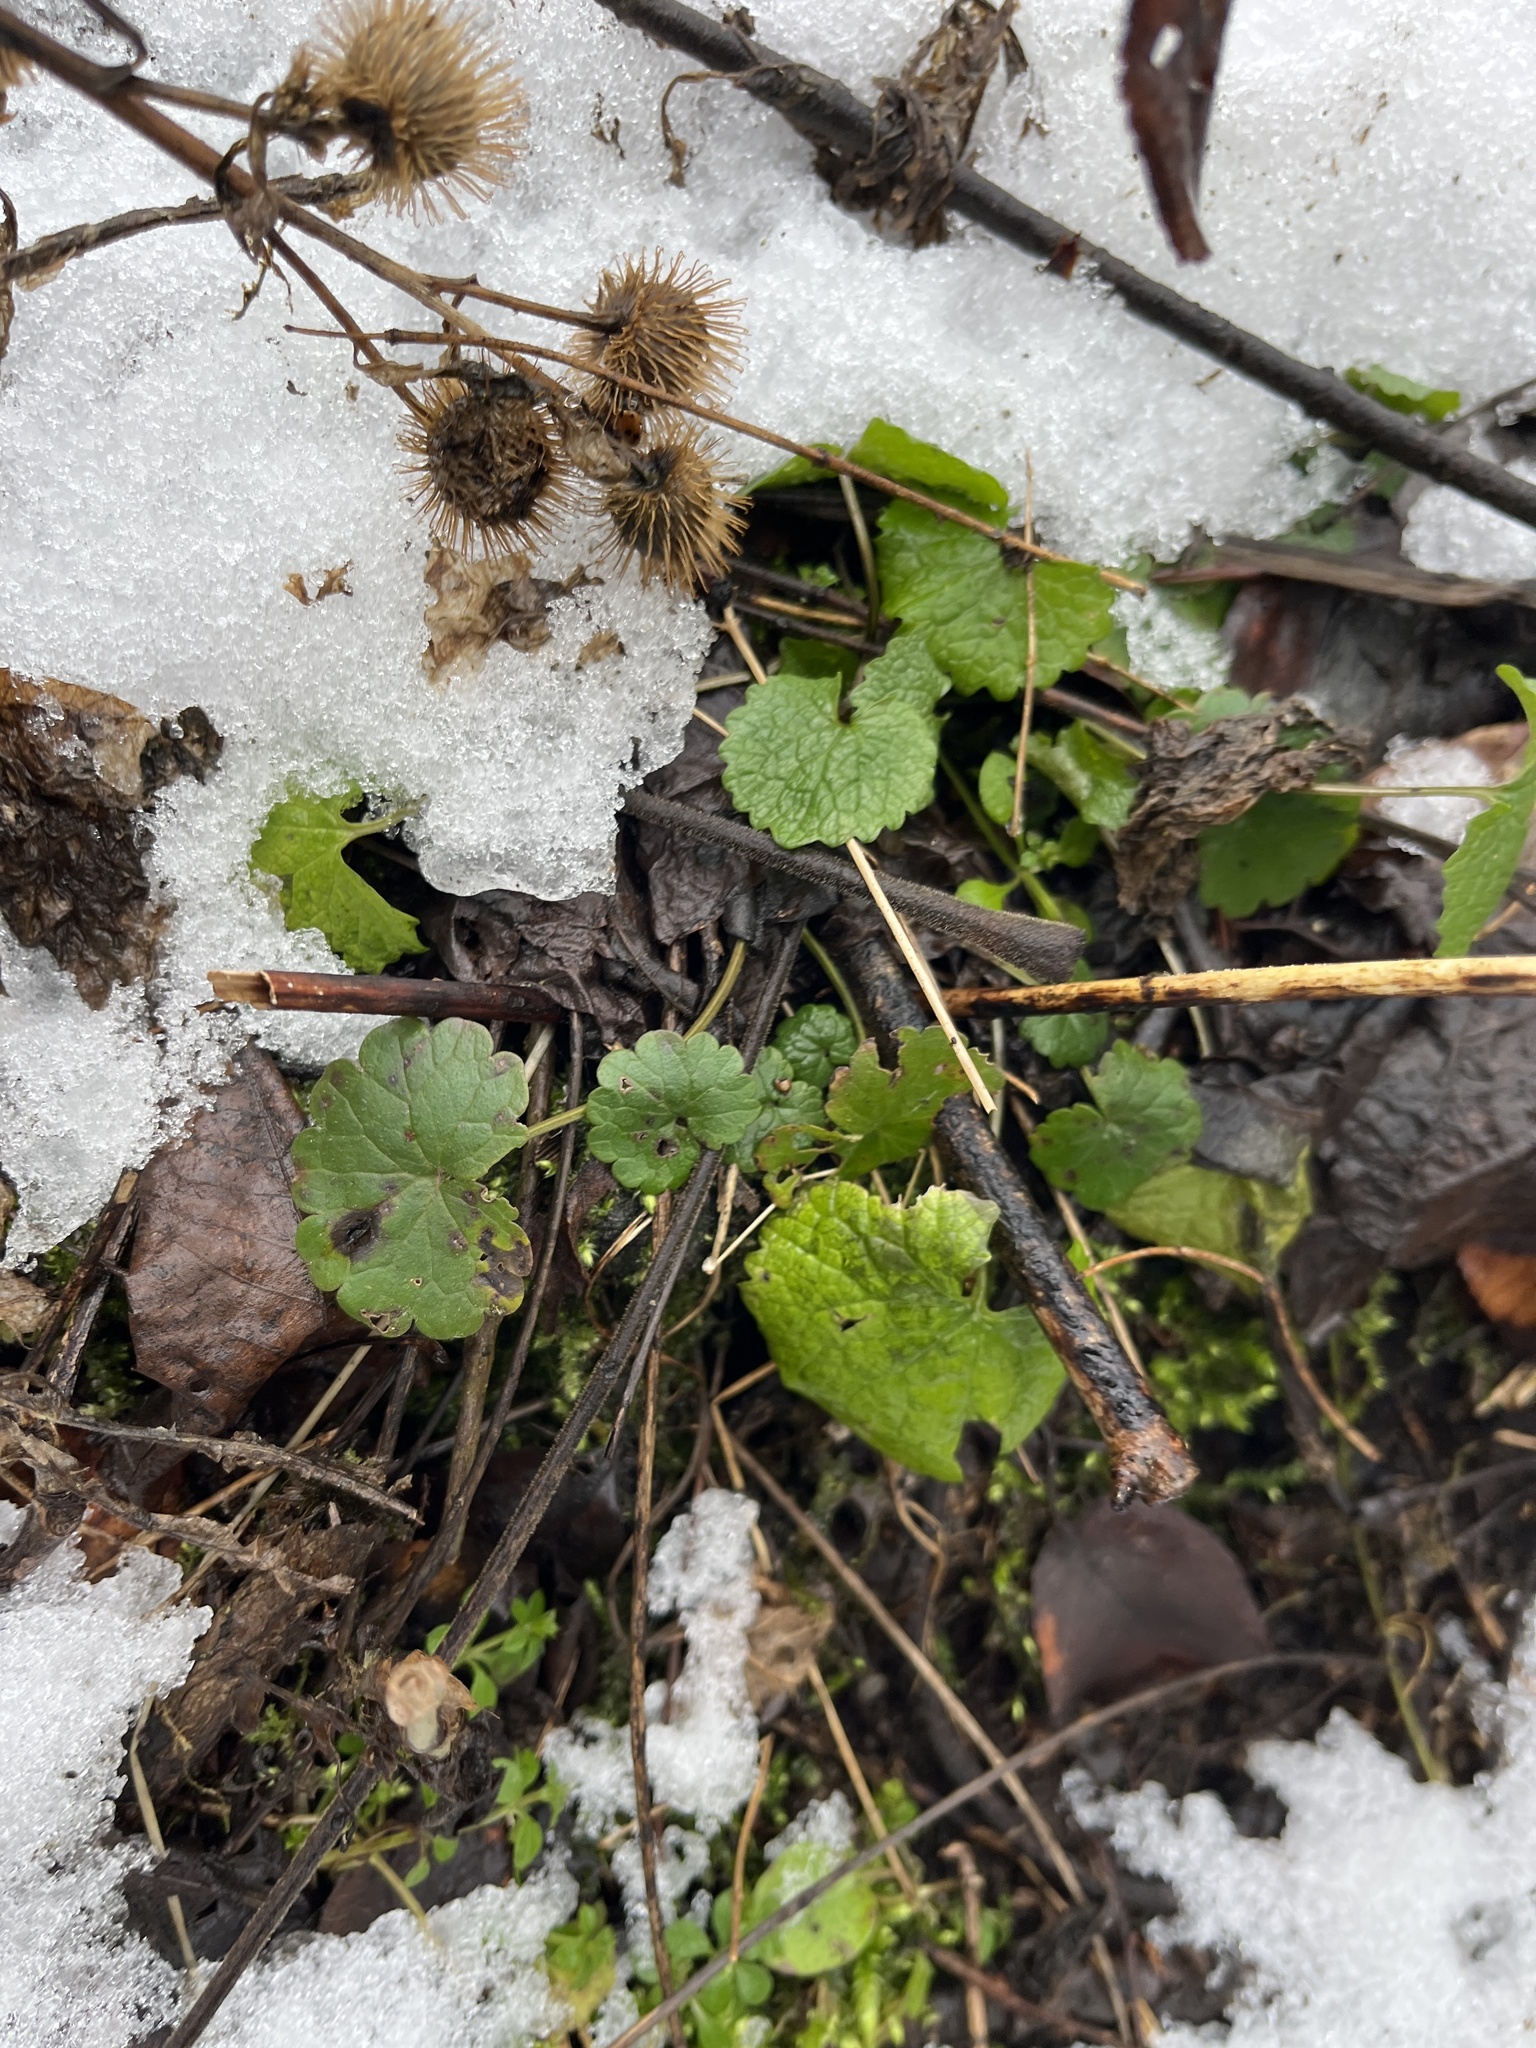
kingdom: Plantae
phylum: Tracheophyta
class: Magnoliopsida
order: Brassicales
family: Brassicaceae
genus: Alliaria
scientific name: Alliaria petiolata
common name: Garlic mustard
